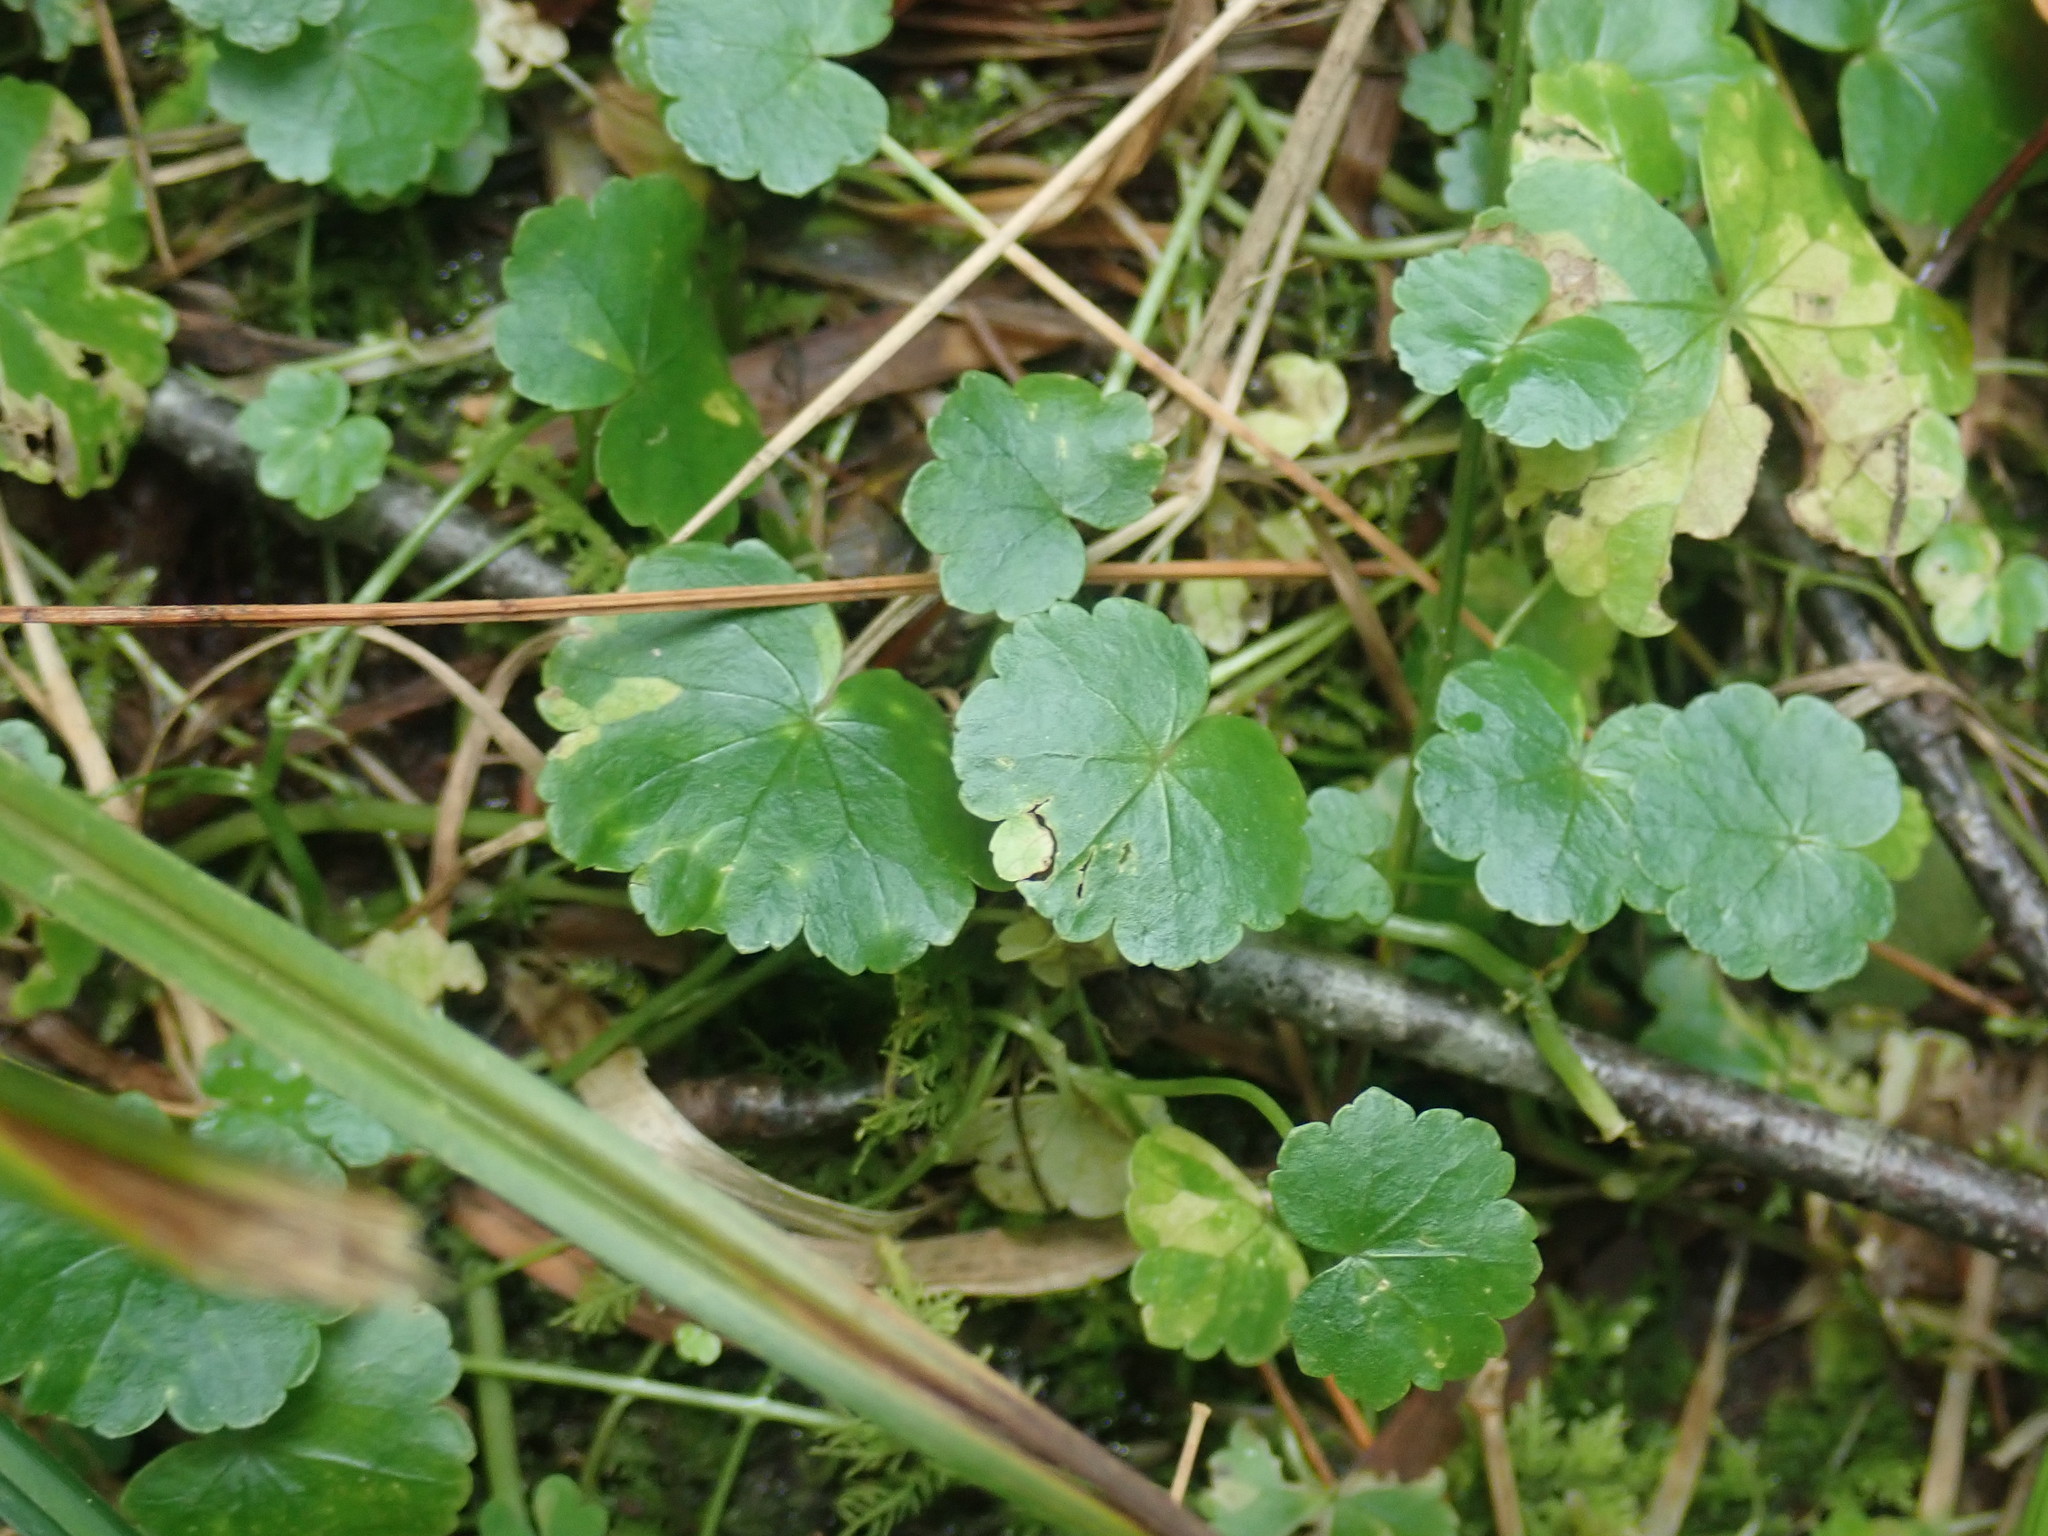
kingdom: Plantae
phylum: Tracheophyta
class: Magnoliopsida
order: Apiales
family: Araliaceae
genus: Hydrocotyle
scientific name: Hydrocotyle americana
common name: American water-pennywort
